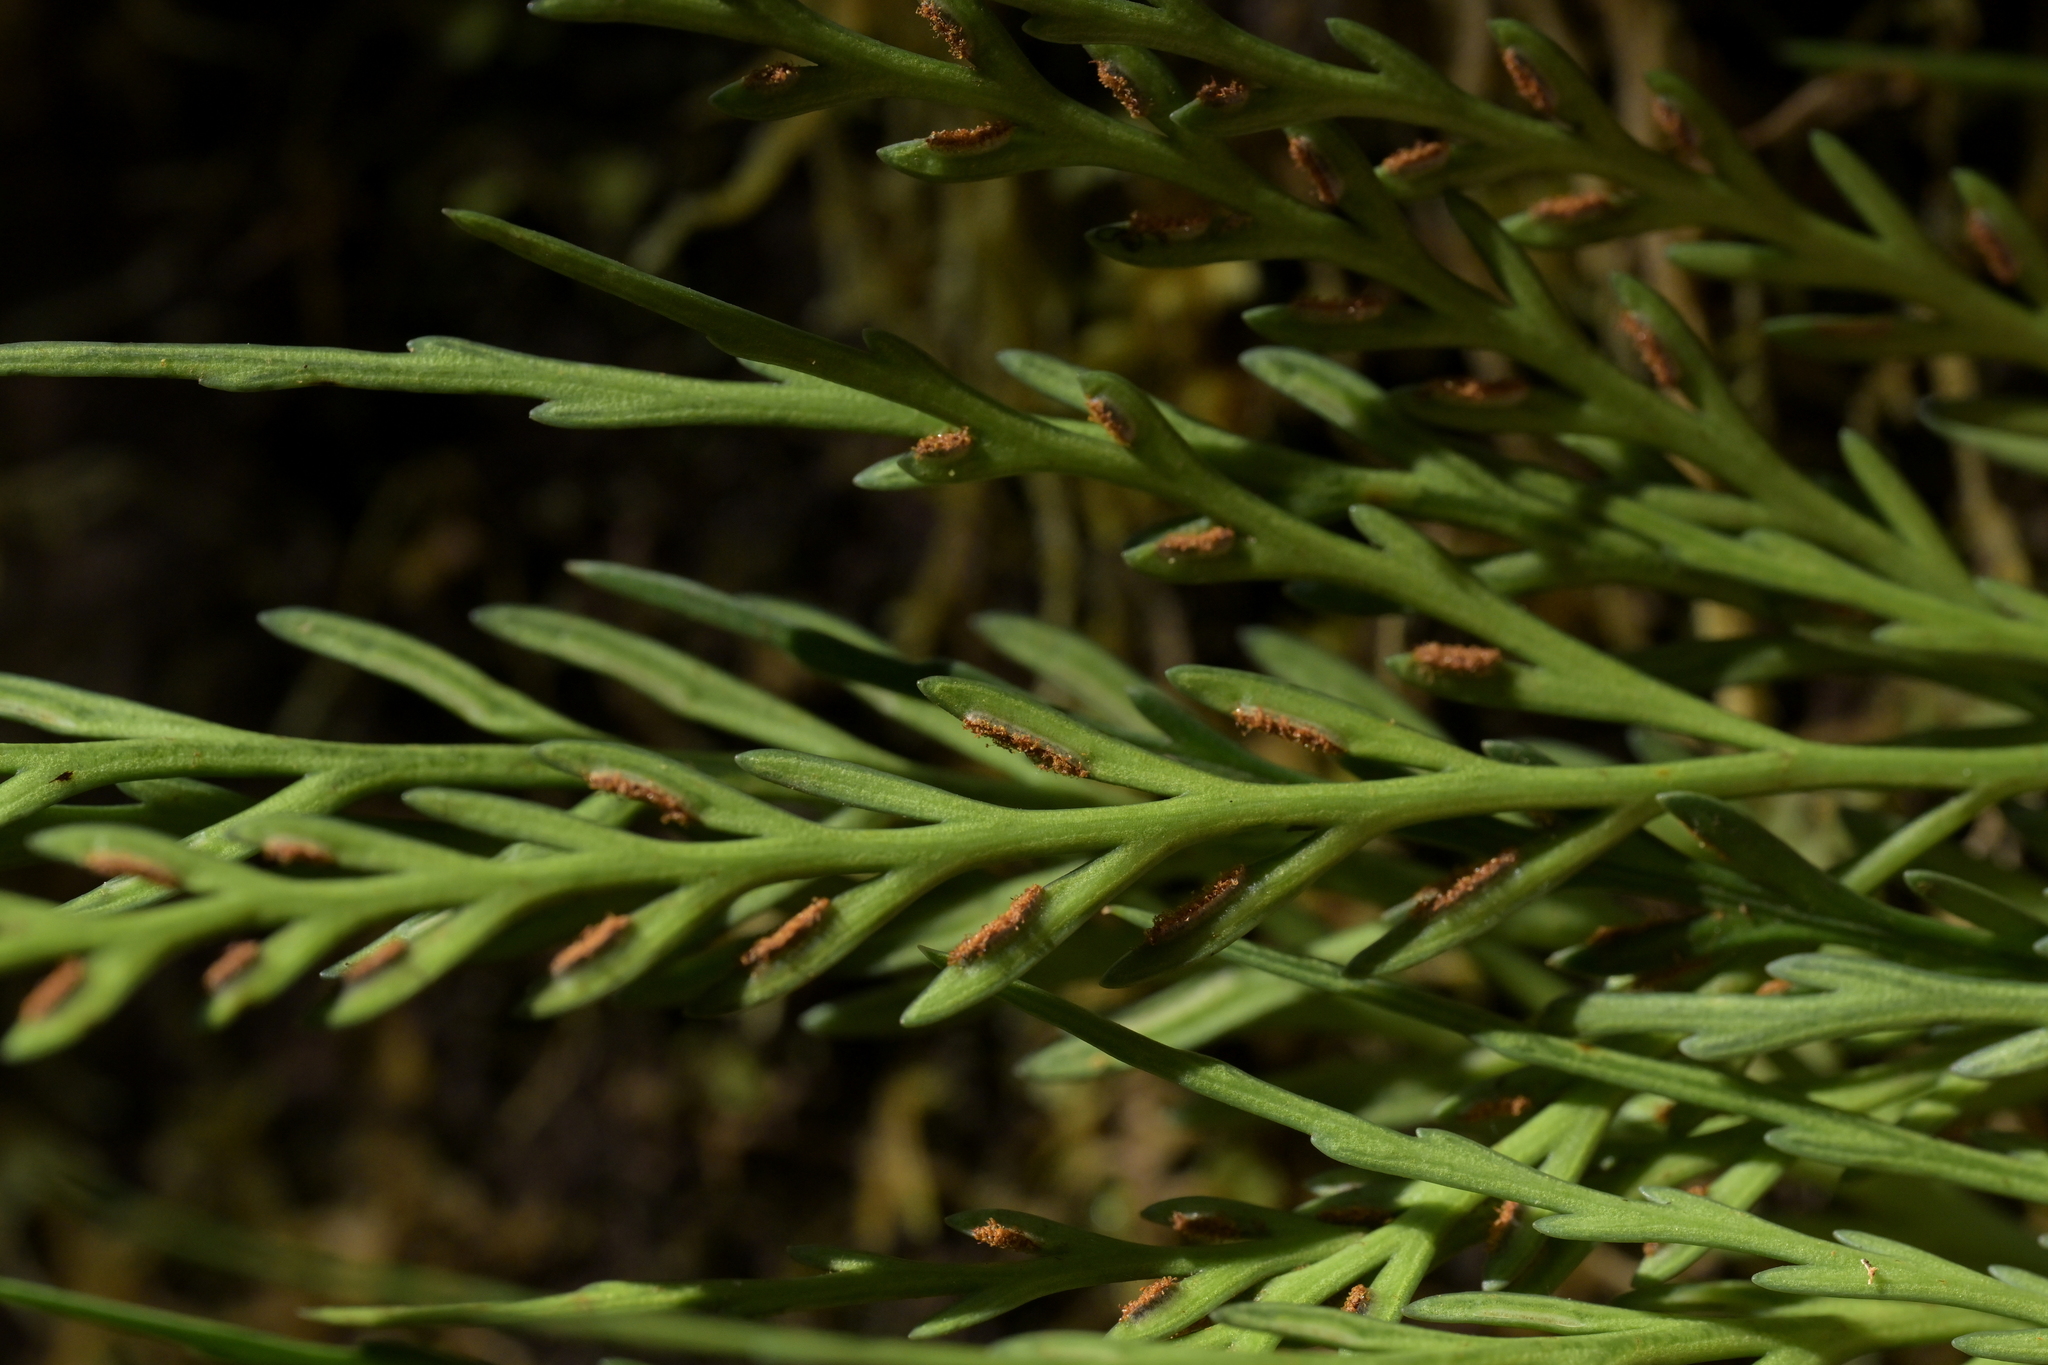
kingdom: Plantae
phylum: Tracheophyta
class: Polypodiopsida
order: Polypodiales
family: Aspleniaceae
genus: Asplenium
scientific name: Asplenium flaccidum
